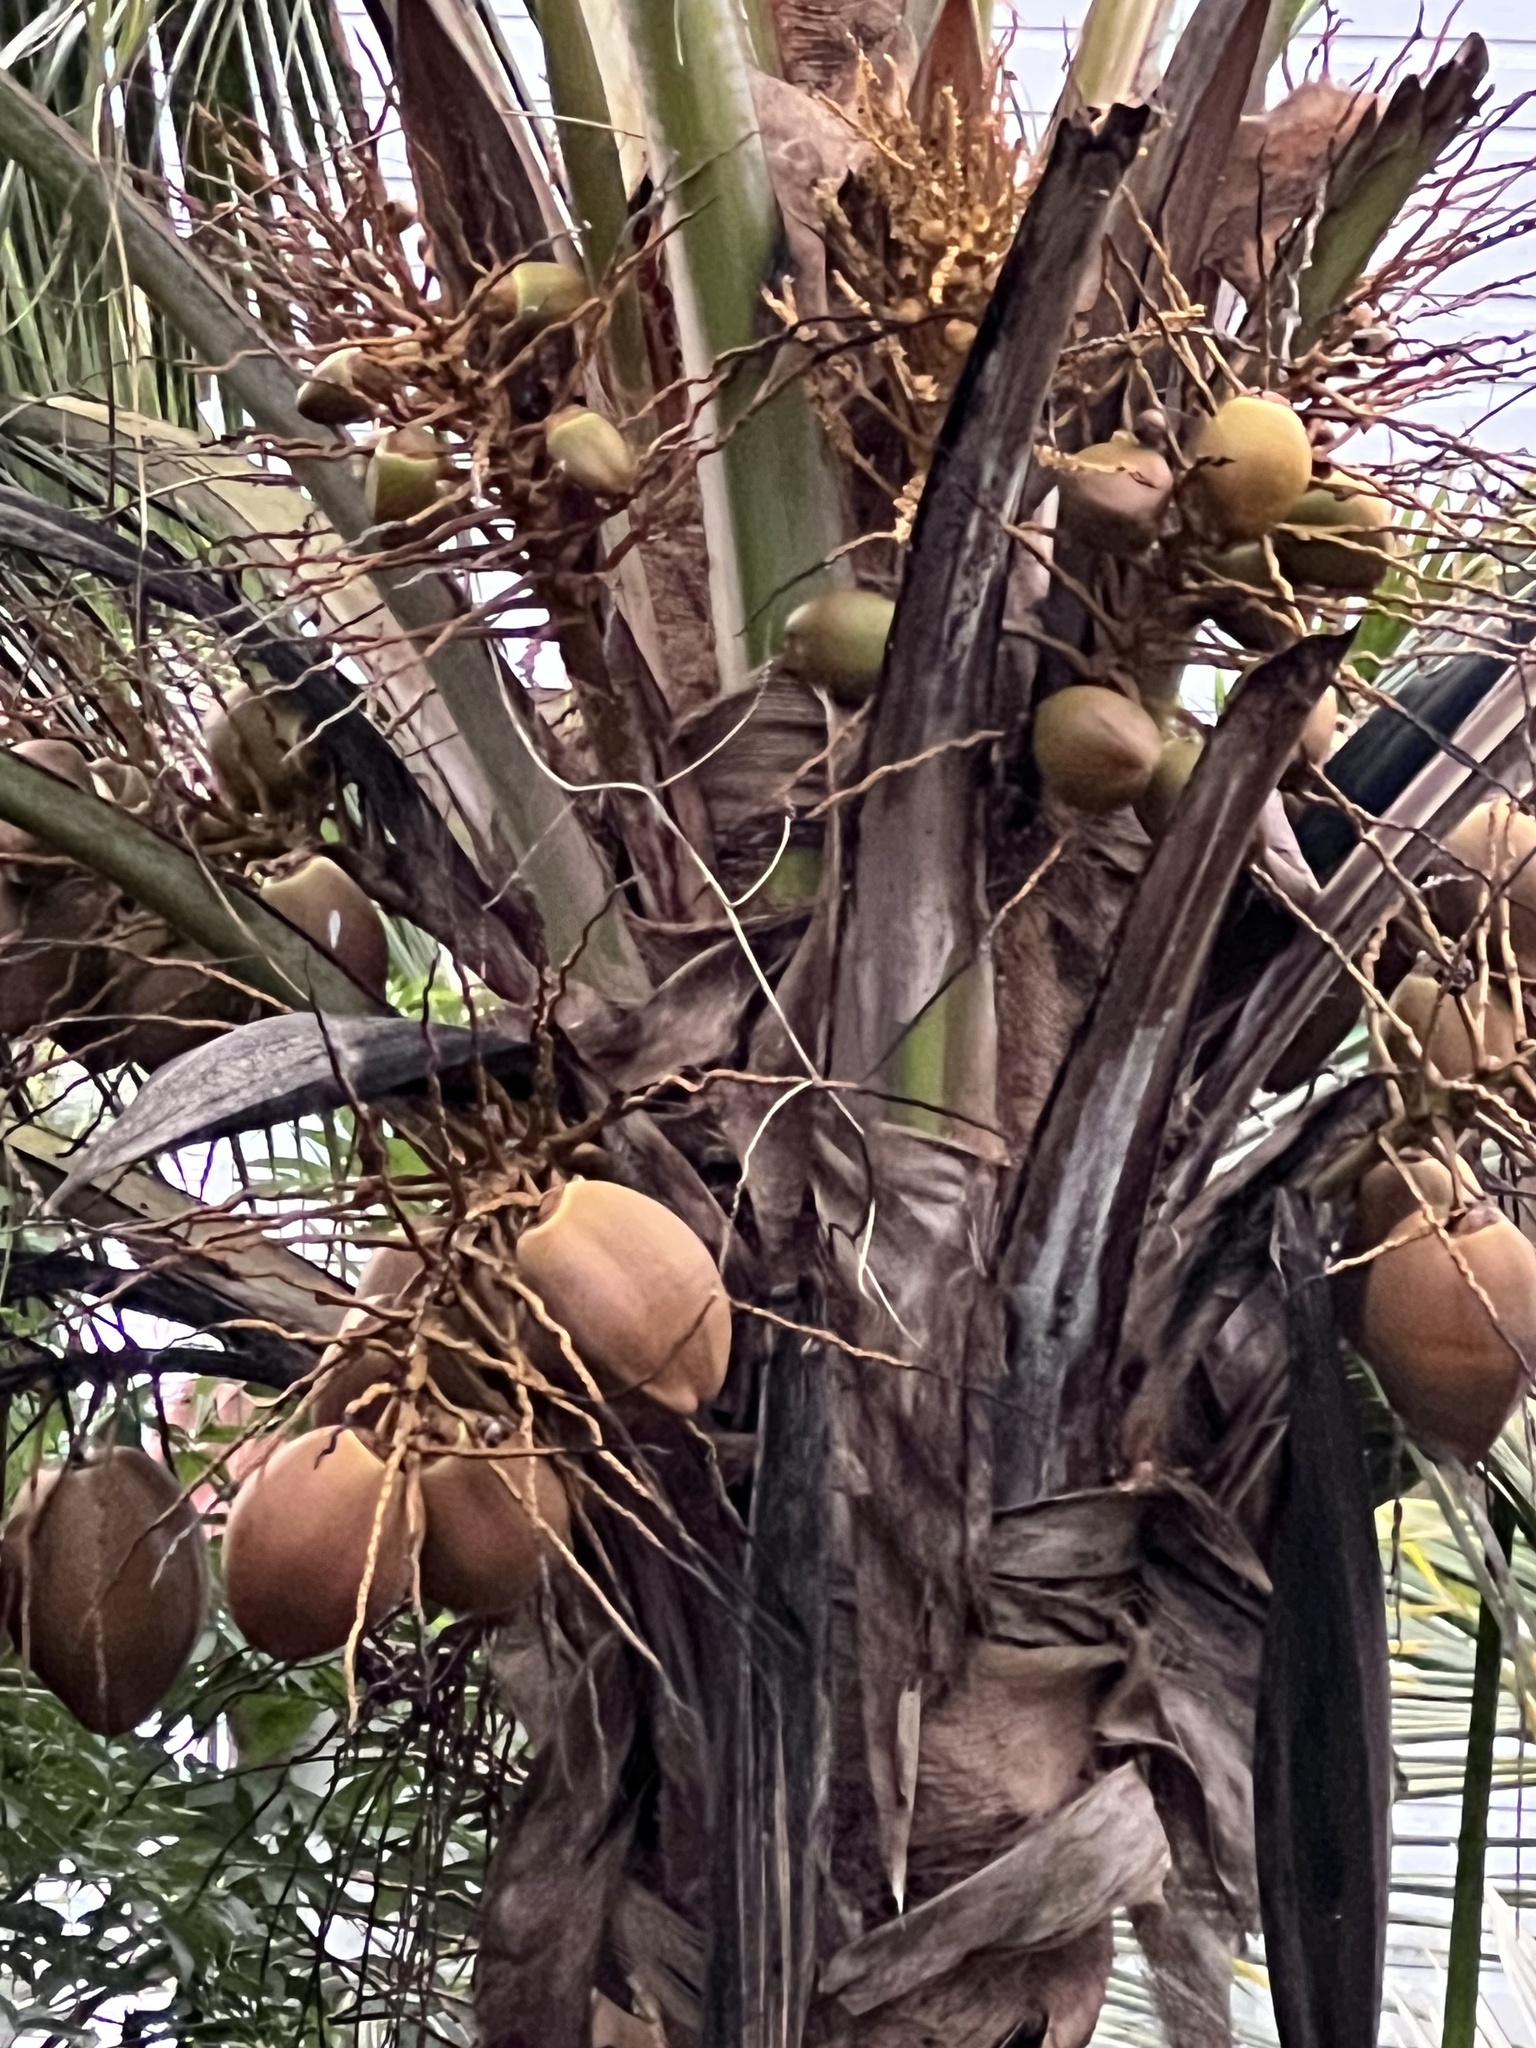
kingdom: Plantae
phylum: Tracheophyta
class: Liliopsida
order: Arecales
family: Arecaceae
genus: Cocos
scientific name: Cocos nucifera
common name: Coconut palm
